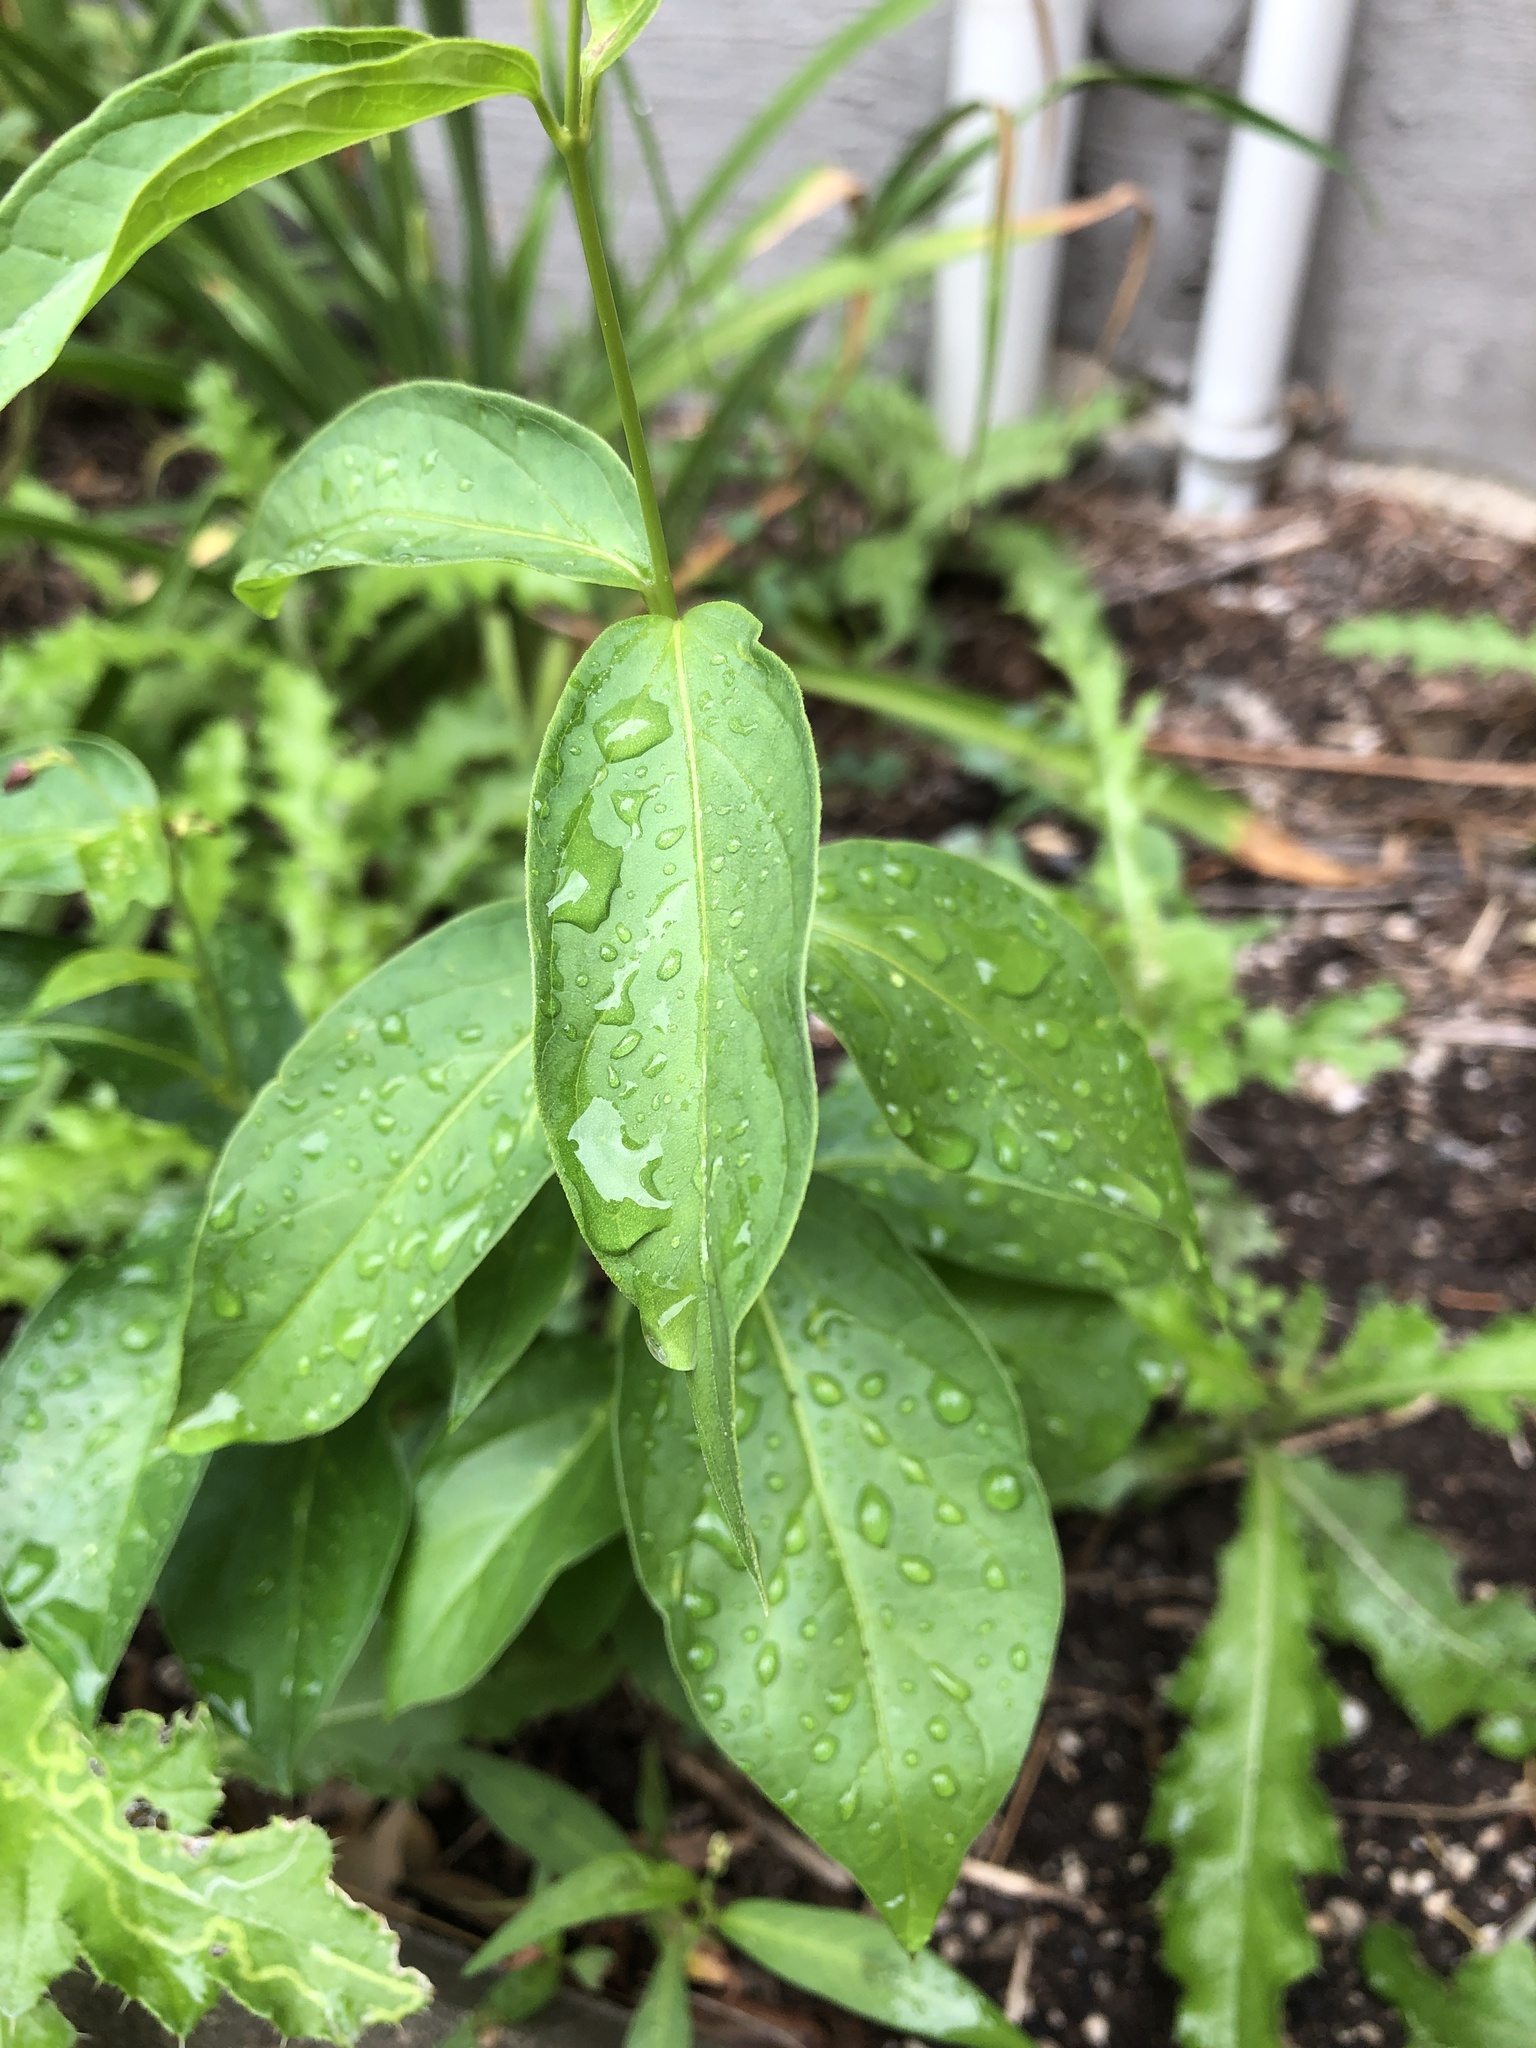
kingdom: Plantae
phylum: Tracheophyta
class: Magnoliopsida
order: Gentianales
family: Apocynaceae
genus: Vincetoxicum
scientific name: Vincetoxicum rossicum
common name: Dog-strangling vine
